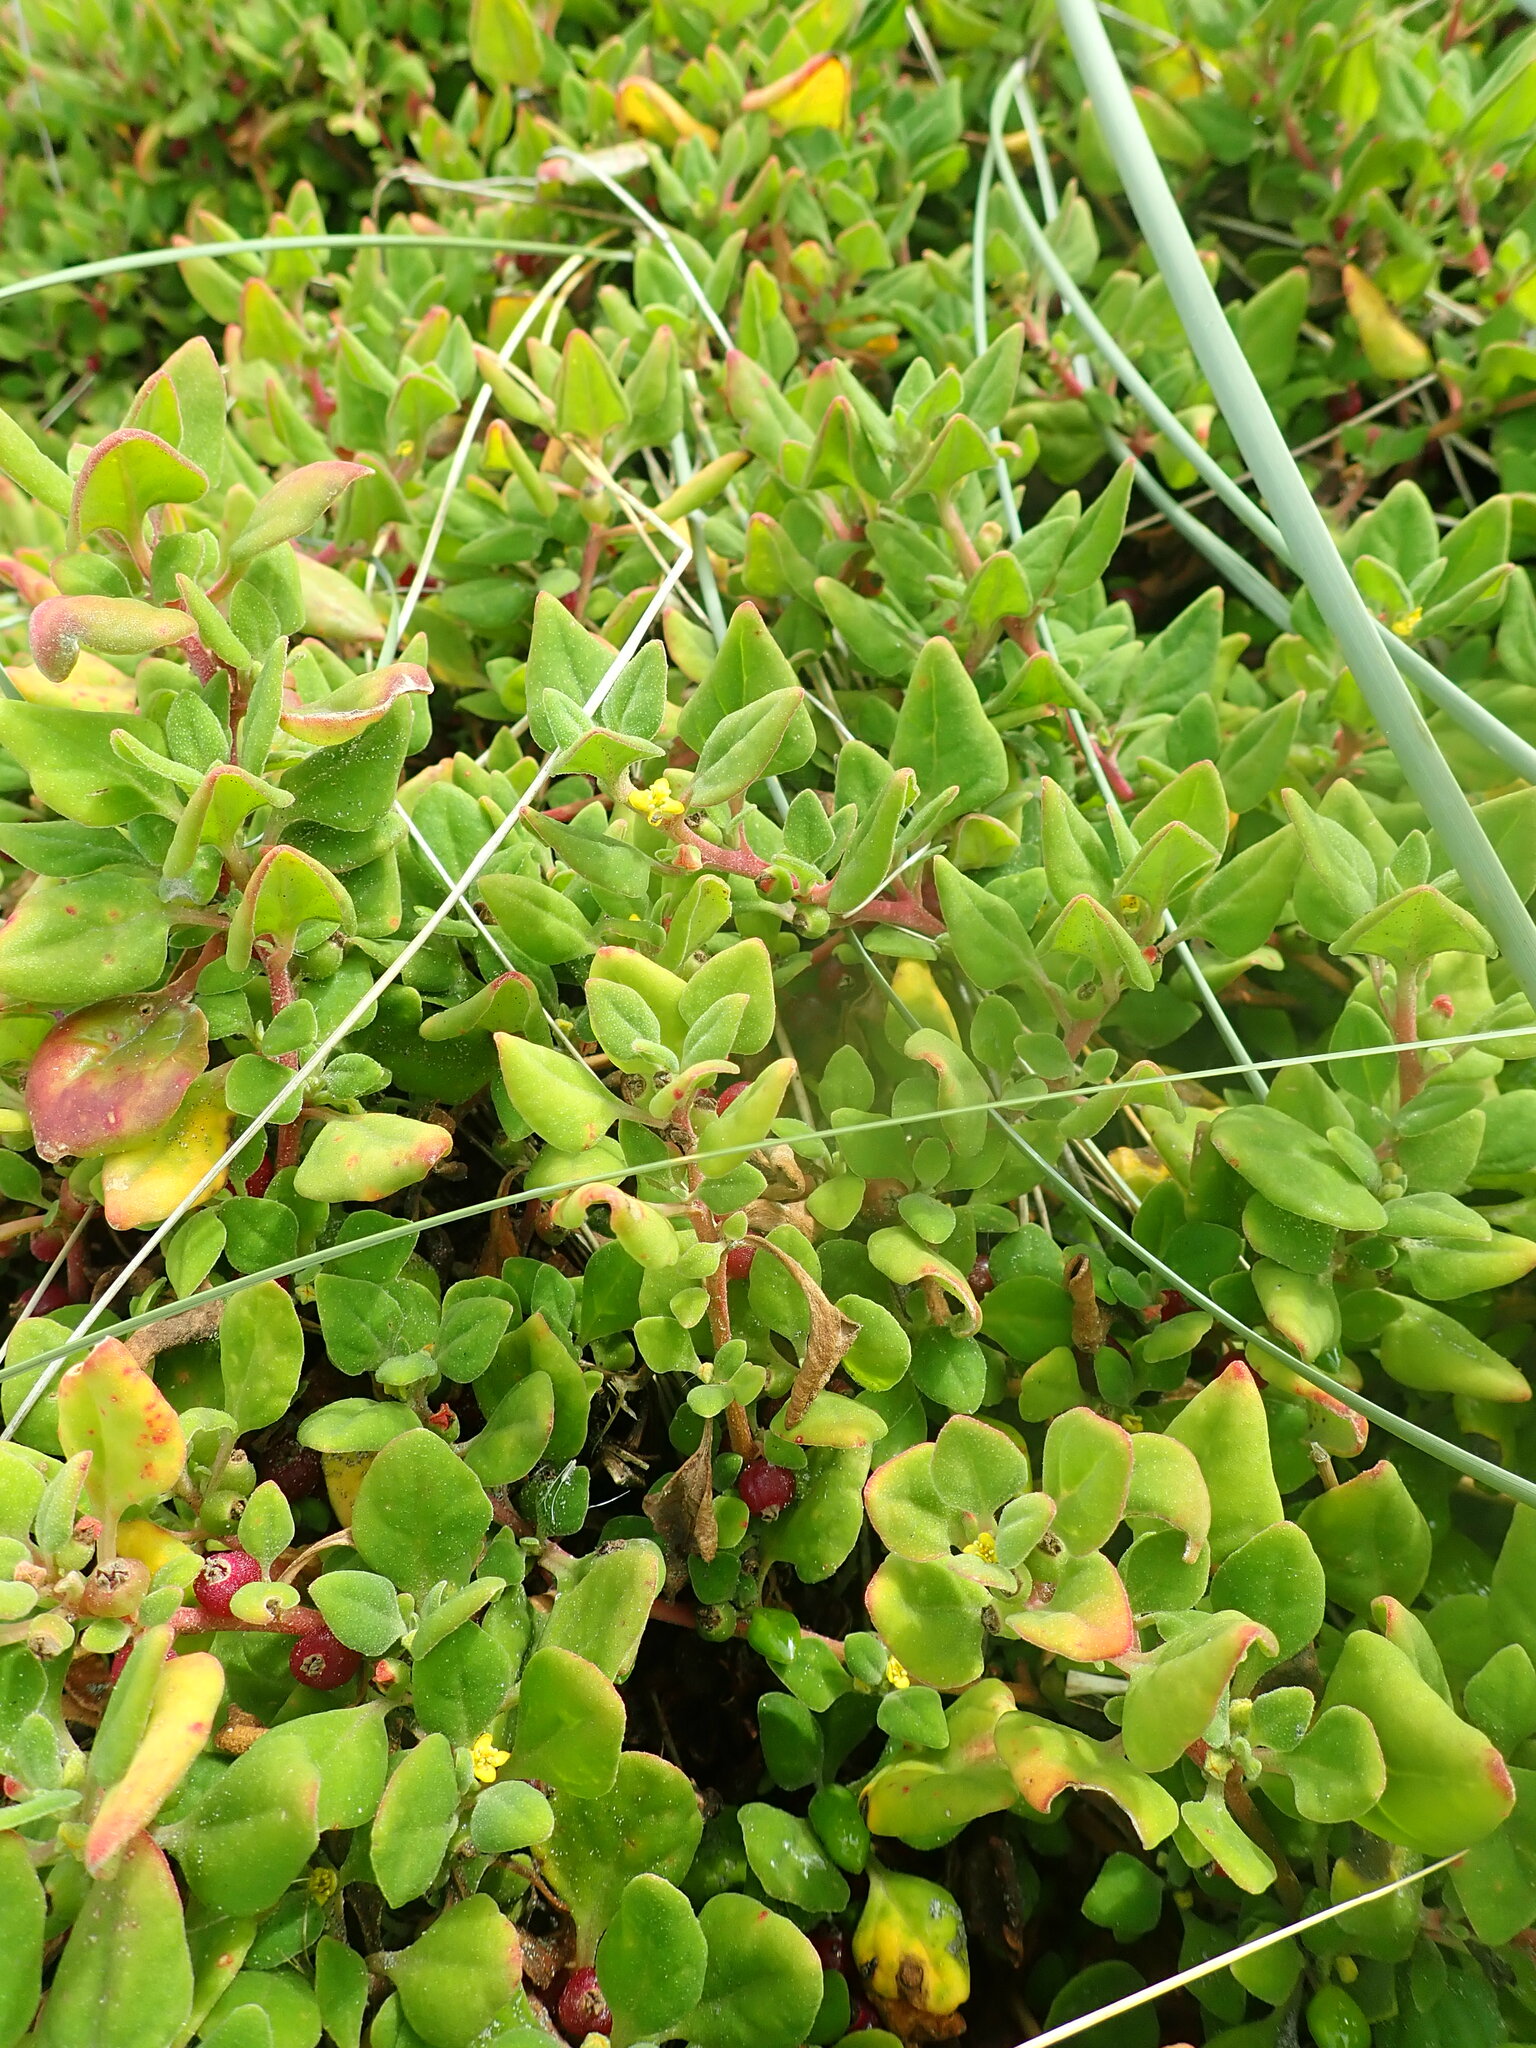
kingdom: Plantae
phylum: Tracheophyta
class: Magnoliopsida
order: Caryophyllales
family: Aizoaceae
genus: Tetragonia
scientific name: Tetragonia implexicoma
